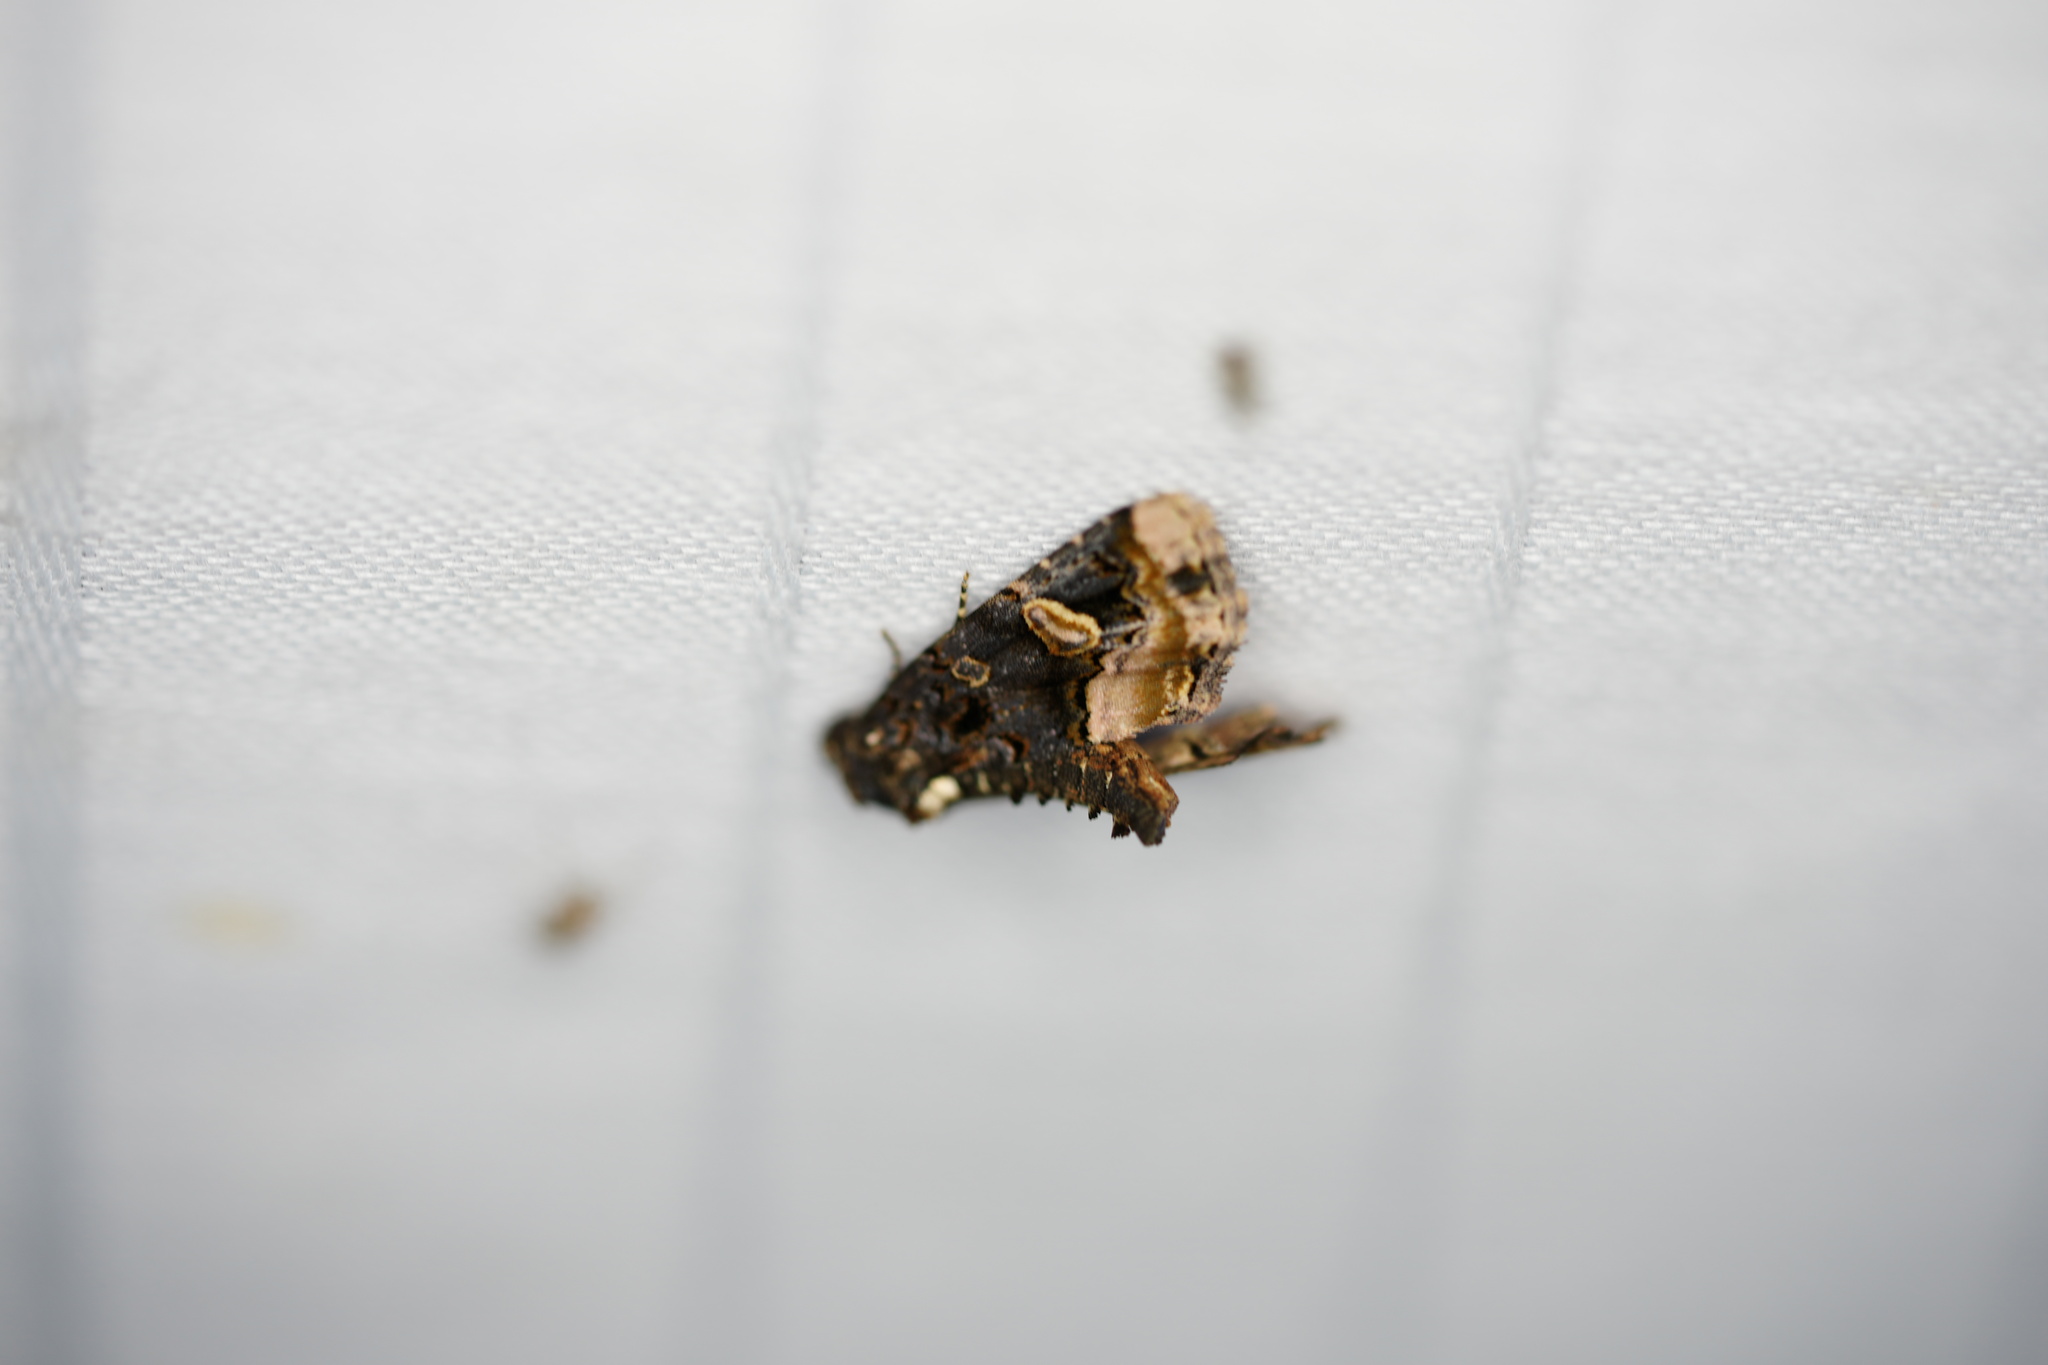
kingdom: Animalia
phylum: Arthropoda
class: Insecta
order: Lepidoptera
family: Noctuidae
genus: Homophoberia
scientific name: Homophoberia apicosa
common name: Black wedge-spot
